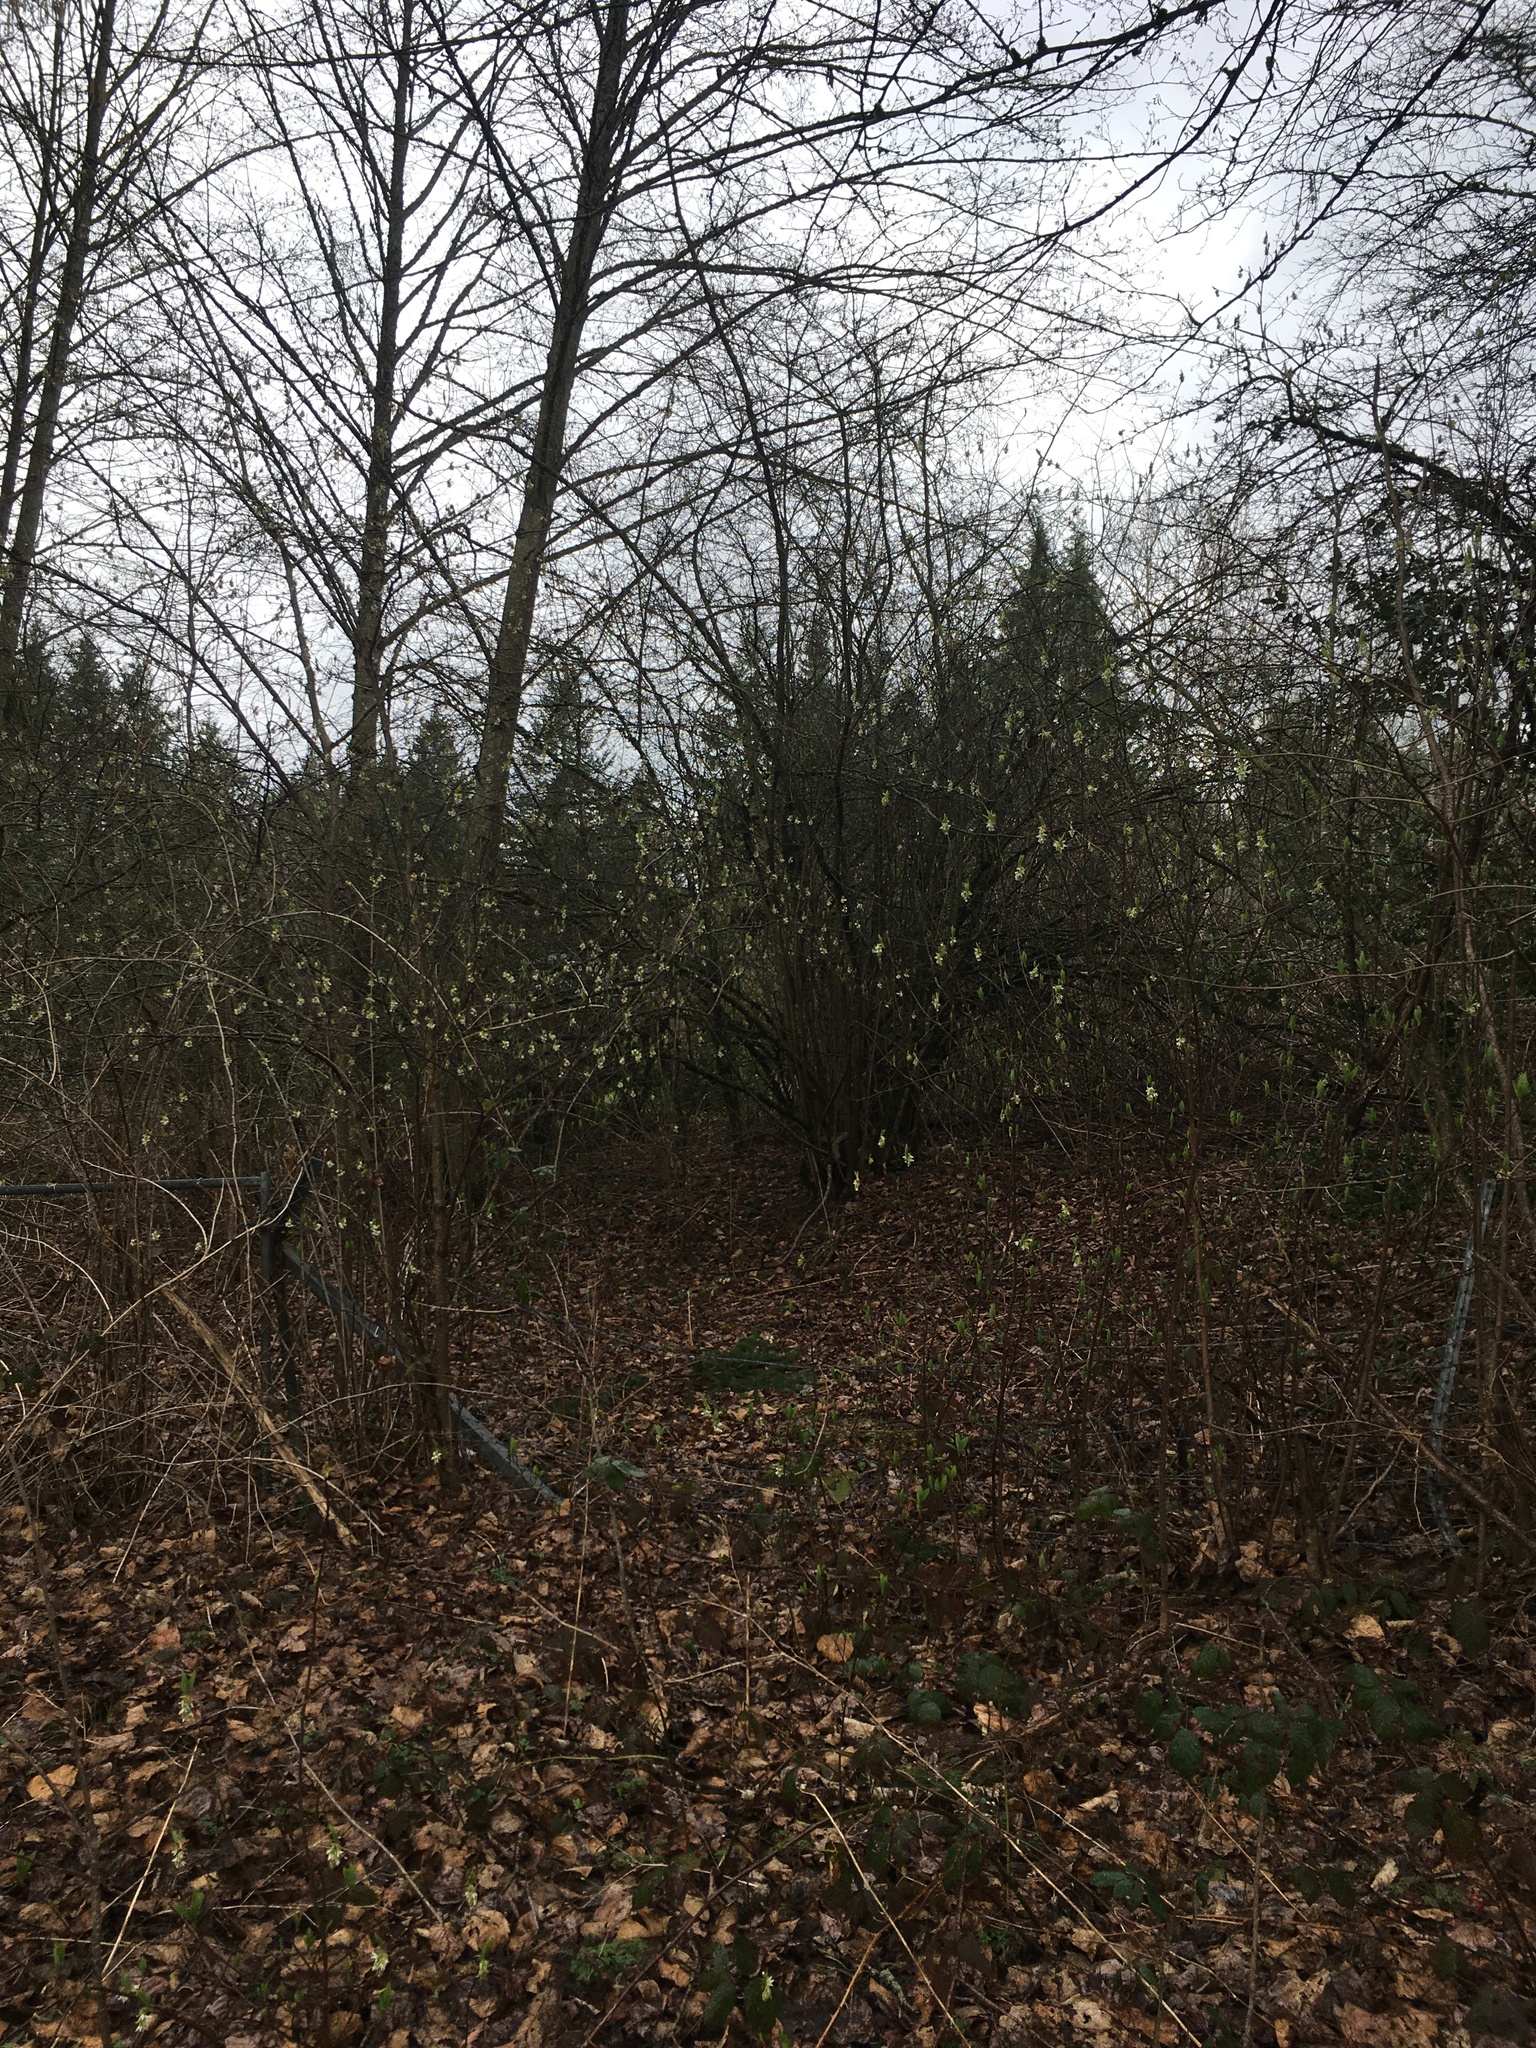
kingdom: Plantae
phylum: Tracheophyta
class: Magnoliopsida
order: Rosales
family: Rosaceae
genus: Oemleria
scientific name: Oemleria cerasiformis
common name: Osoberry
